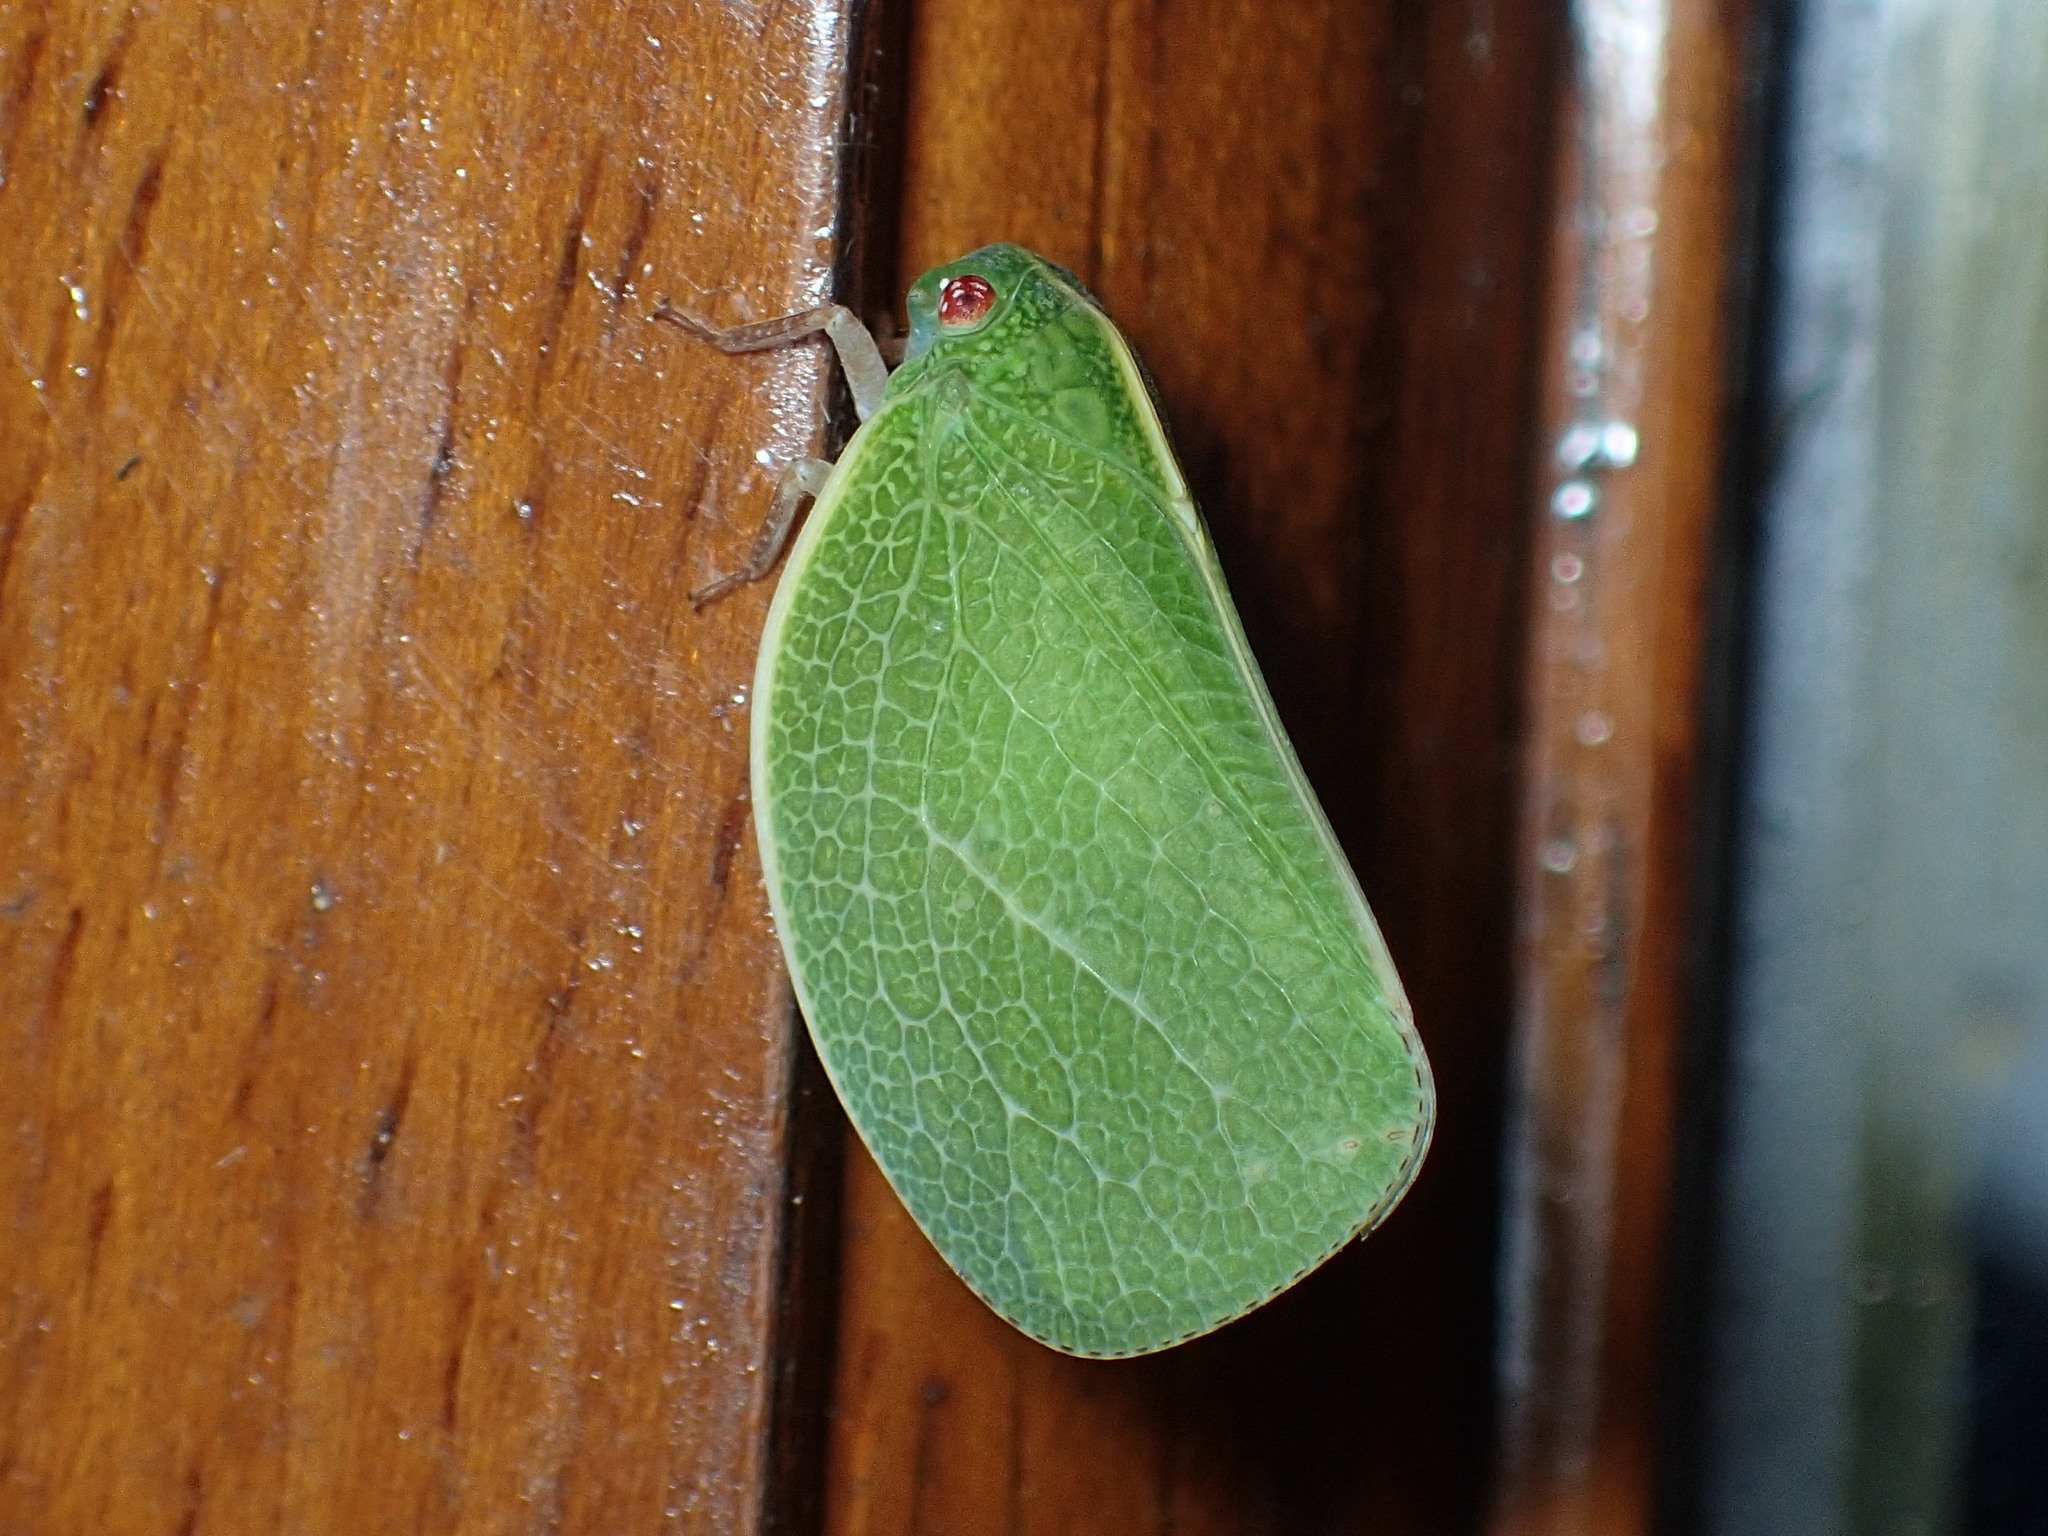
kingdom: Animalia
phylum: Arthropoda
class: Insecta
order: Hemiptera
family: Acanaloniidae
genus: Acanalonia
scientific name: Acanalonia servillei
